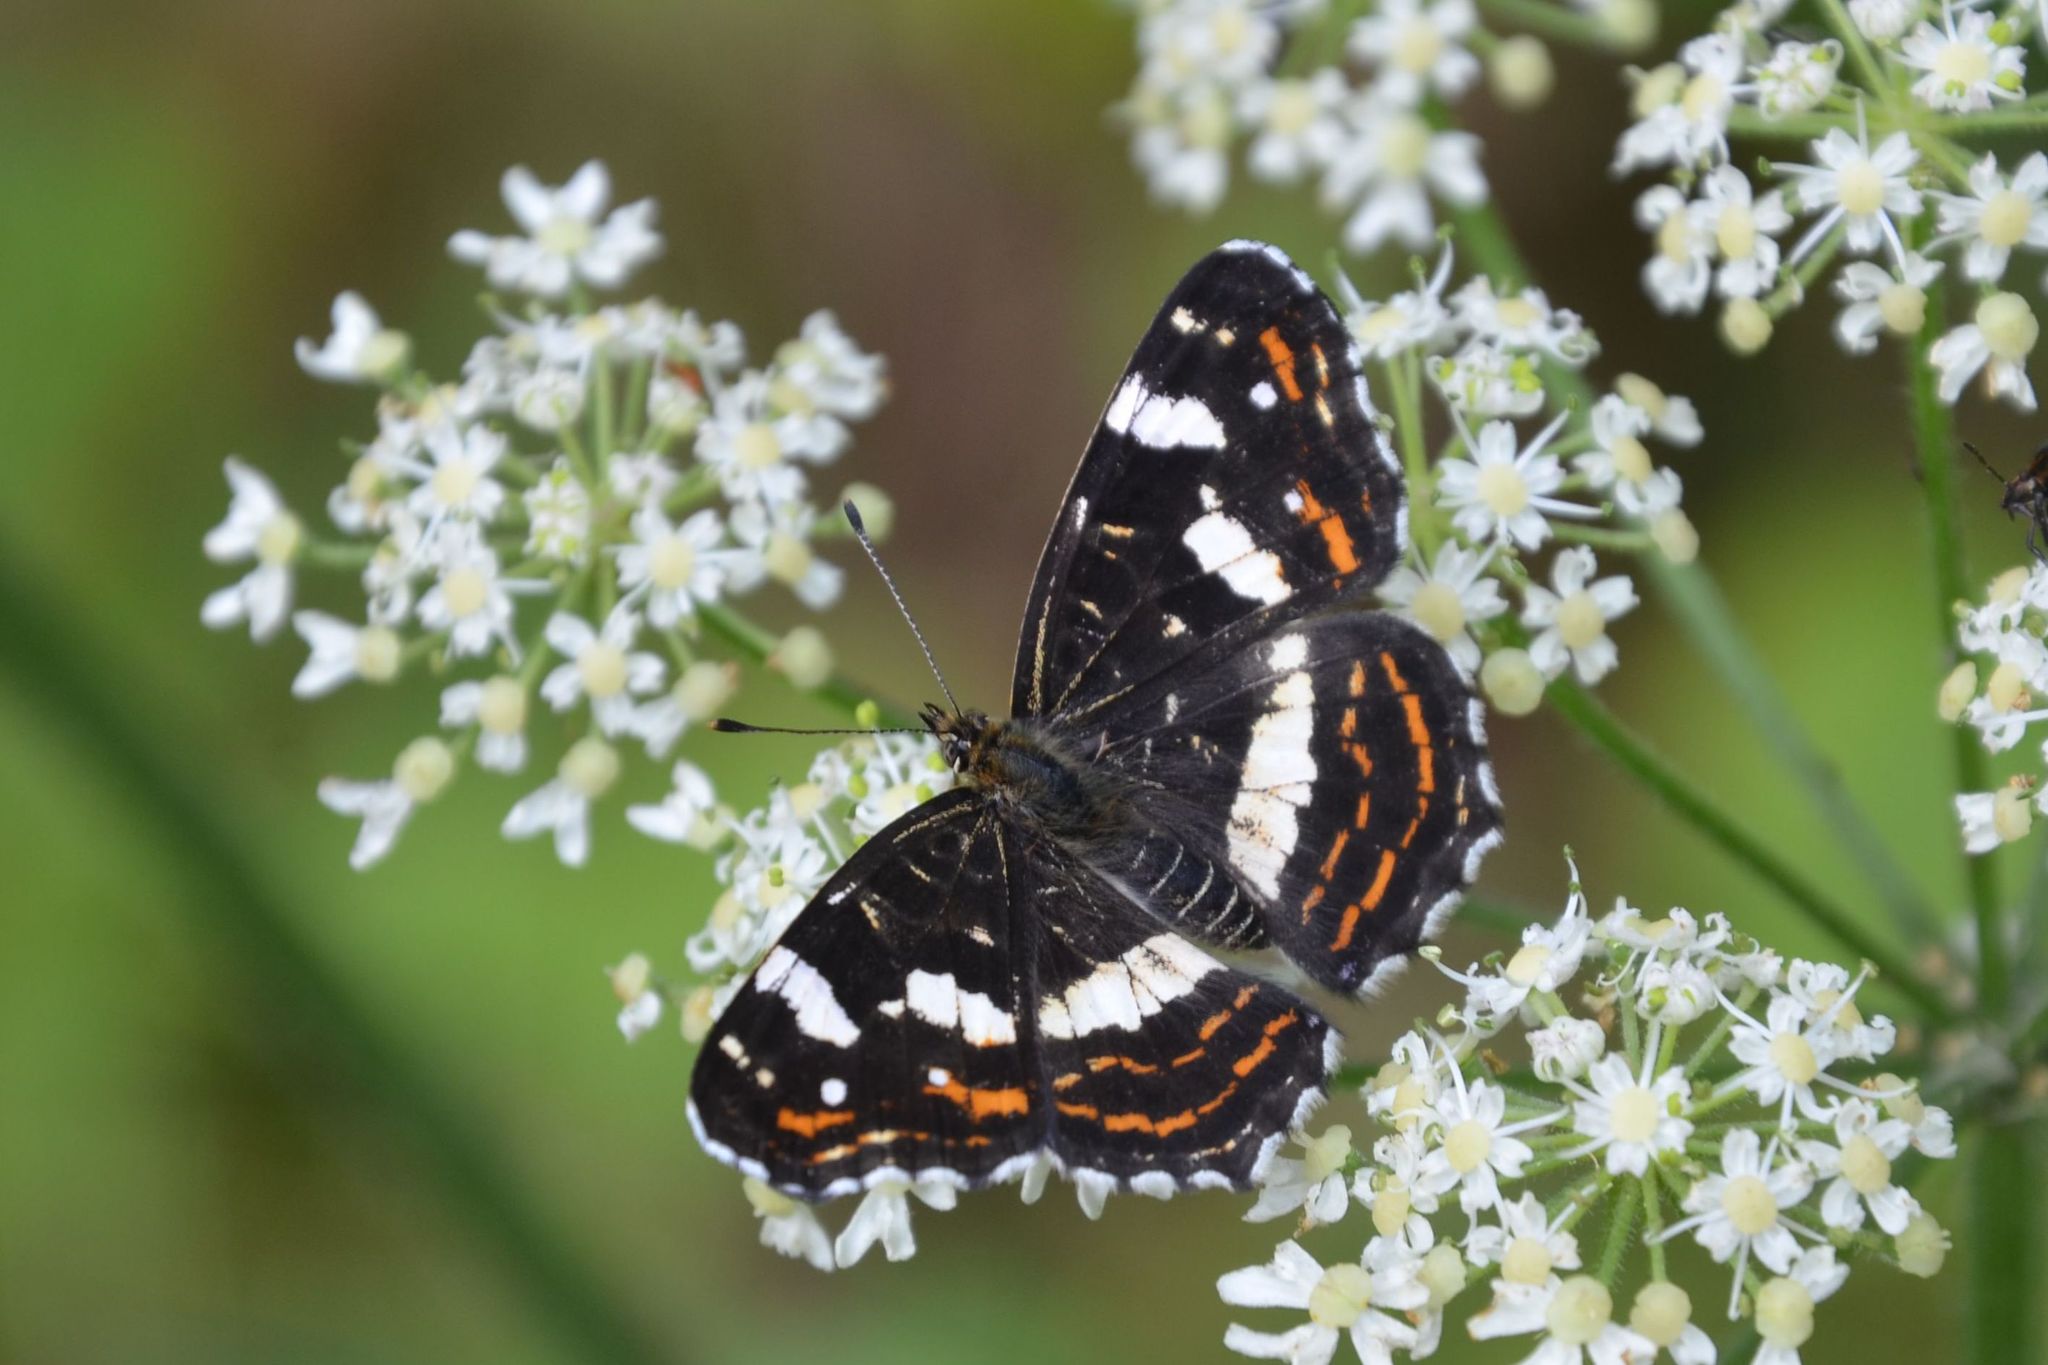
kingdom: Animalia
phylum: Arthropoda
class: Insecta
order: Lepidoptera
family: Nymphalidae
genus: Araschnia
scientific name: Araschnia levana
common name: Map butterfly
